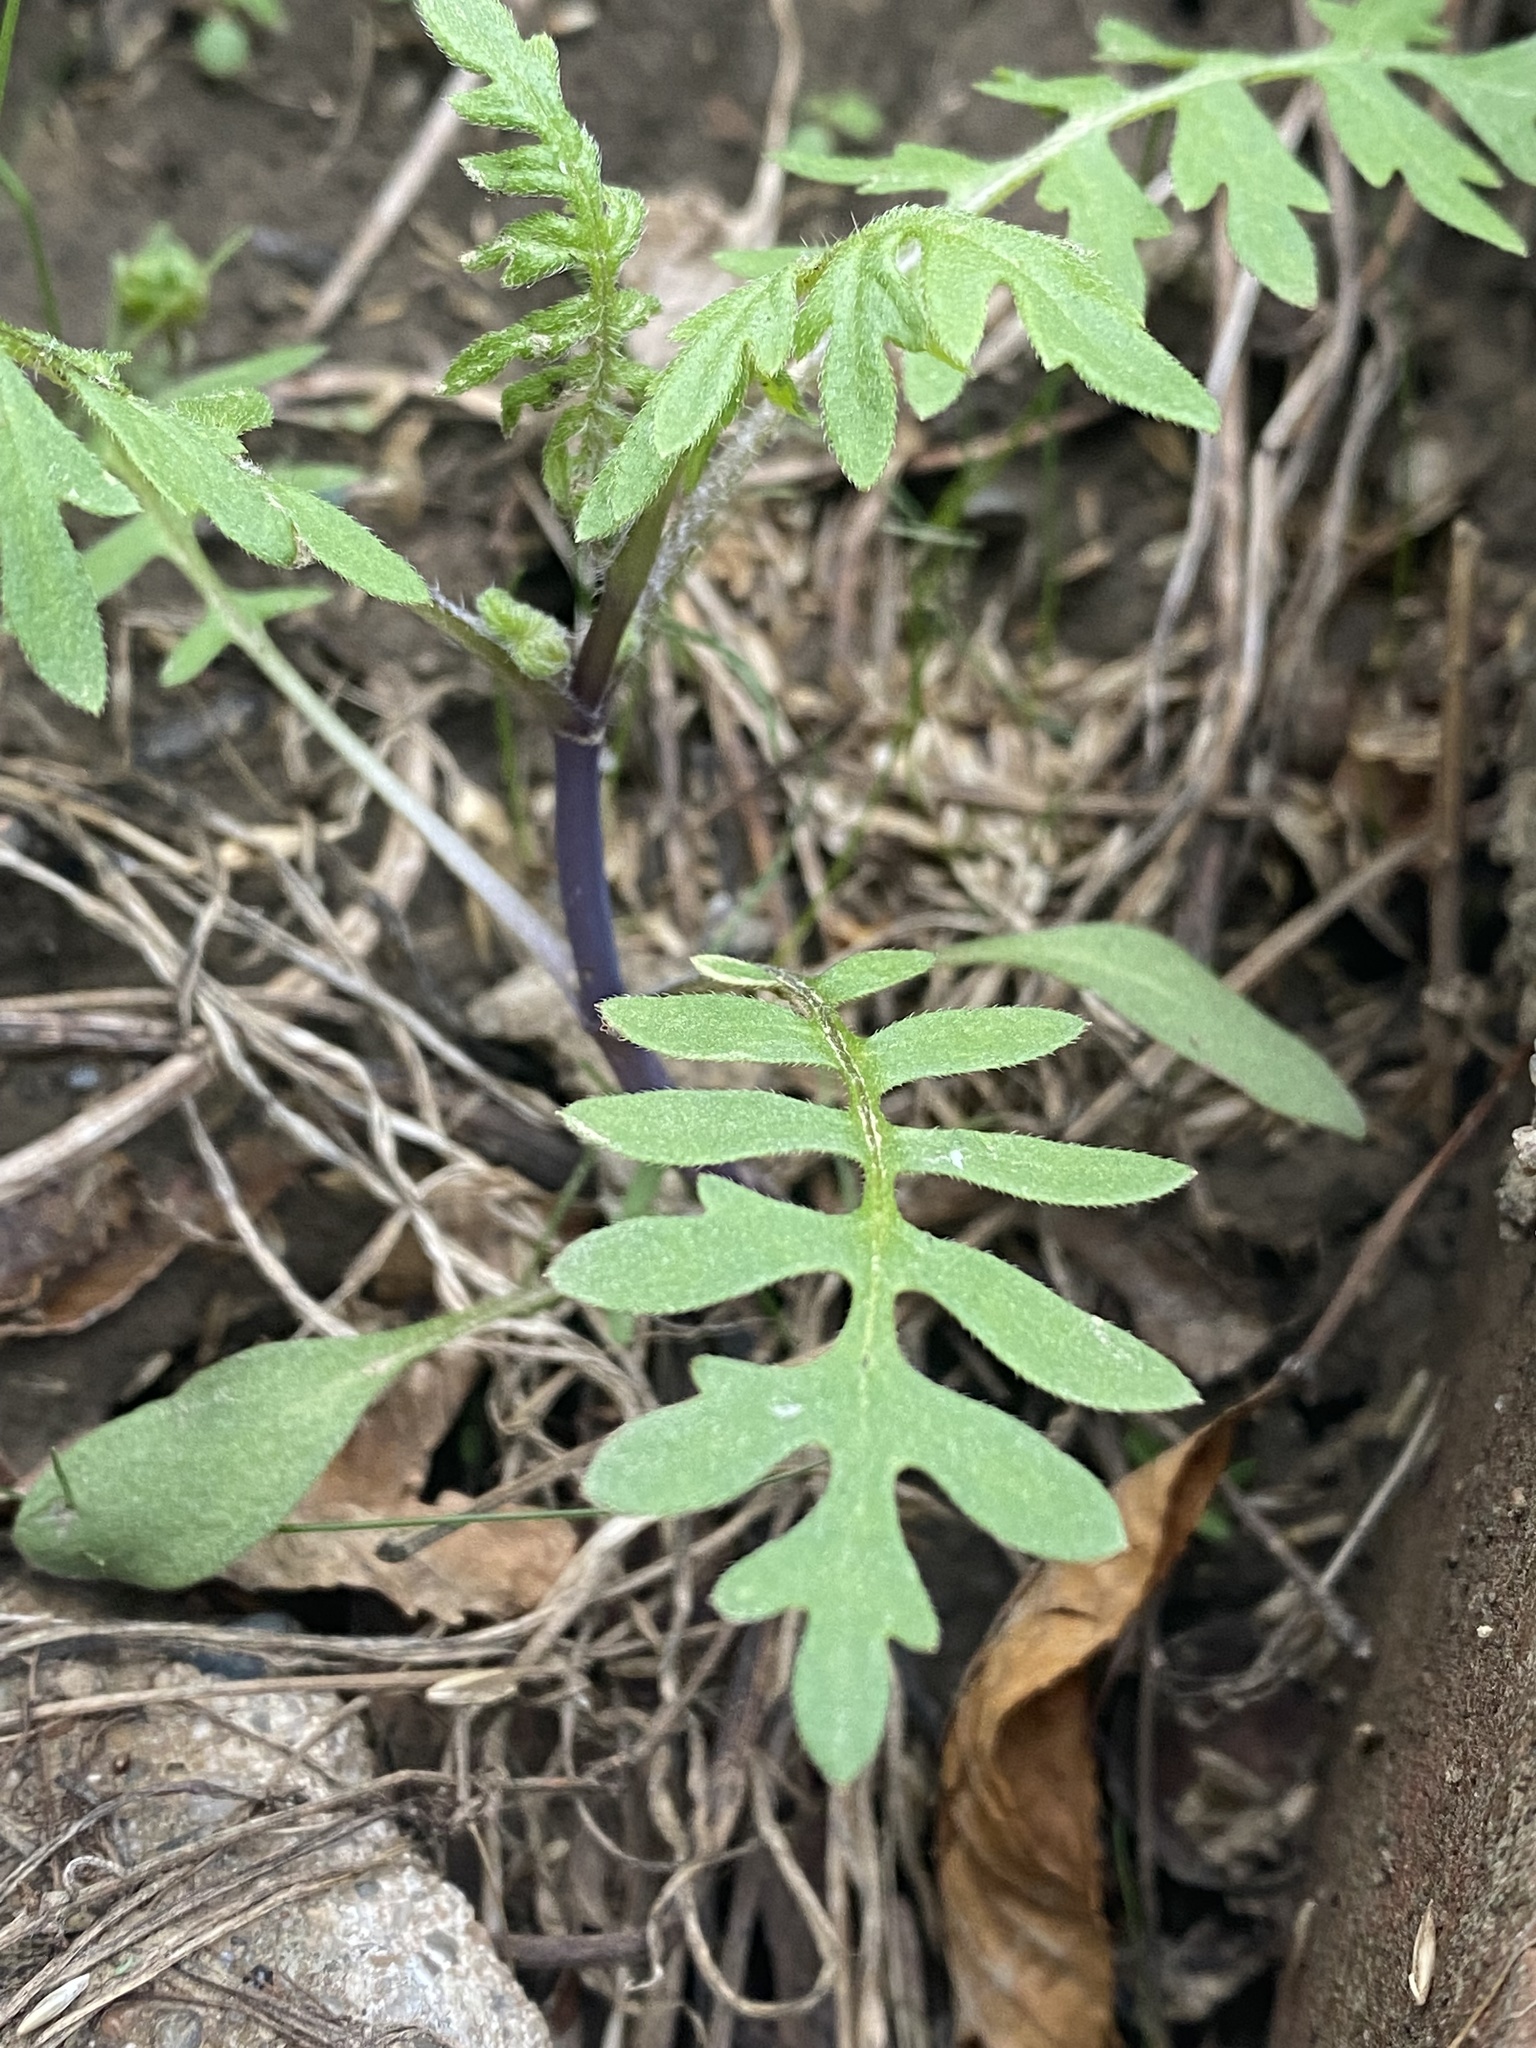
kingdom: Plantae
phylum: Tracheophyta
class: Magnoliopsida
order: Boraginales
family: Hydrophyllaceae
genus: Ellisia
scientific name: Ellisia nyctelea
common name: Aunt lucy
